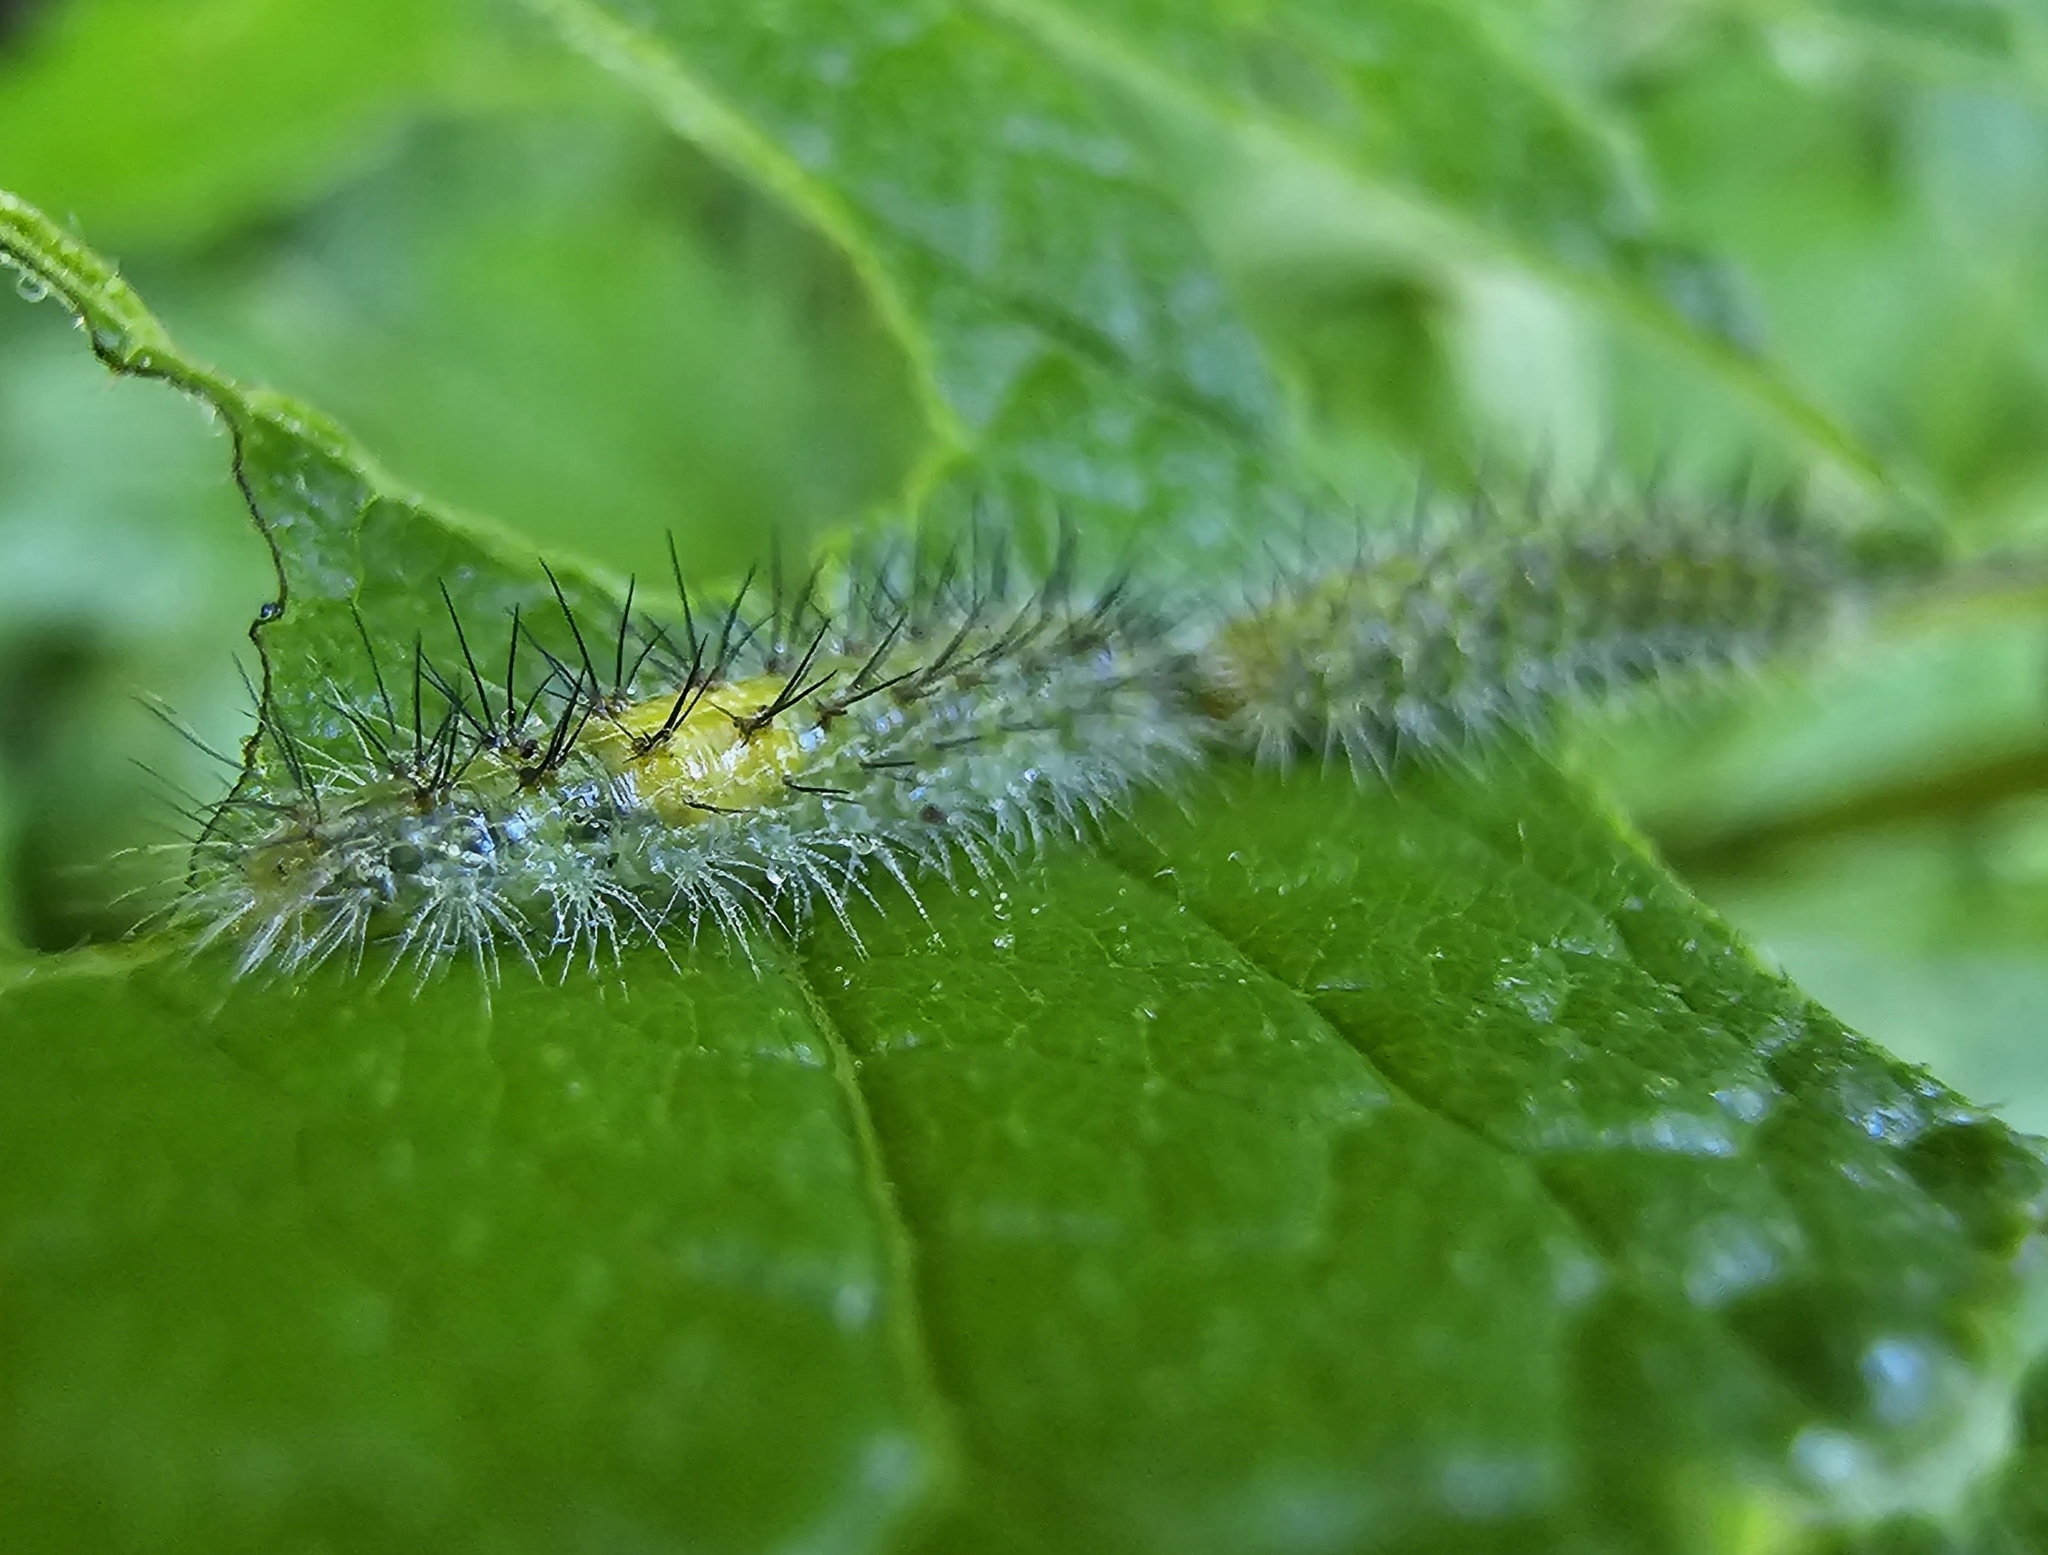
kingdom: Animalia
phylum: Arthropoda
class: Insecta
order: Lepidoptera
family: Pterophoridae
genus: Oidaematophorus
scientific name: Oidaematophorus eupatorii
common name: Eupatorium plume moth
